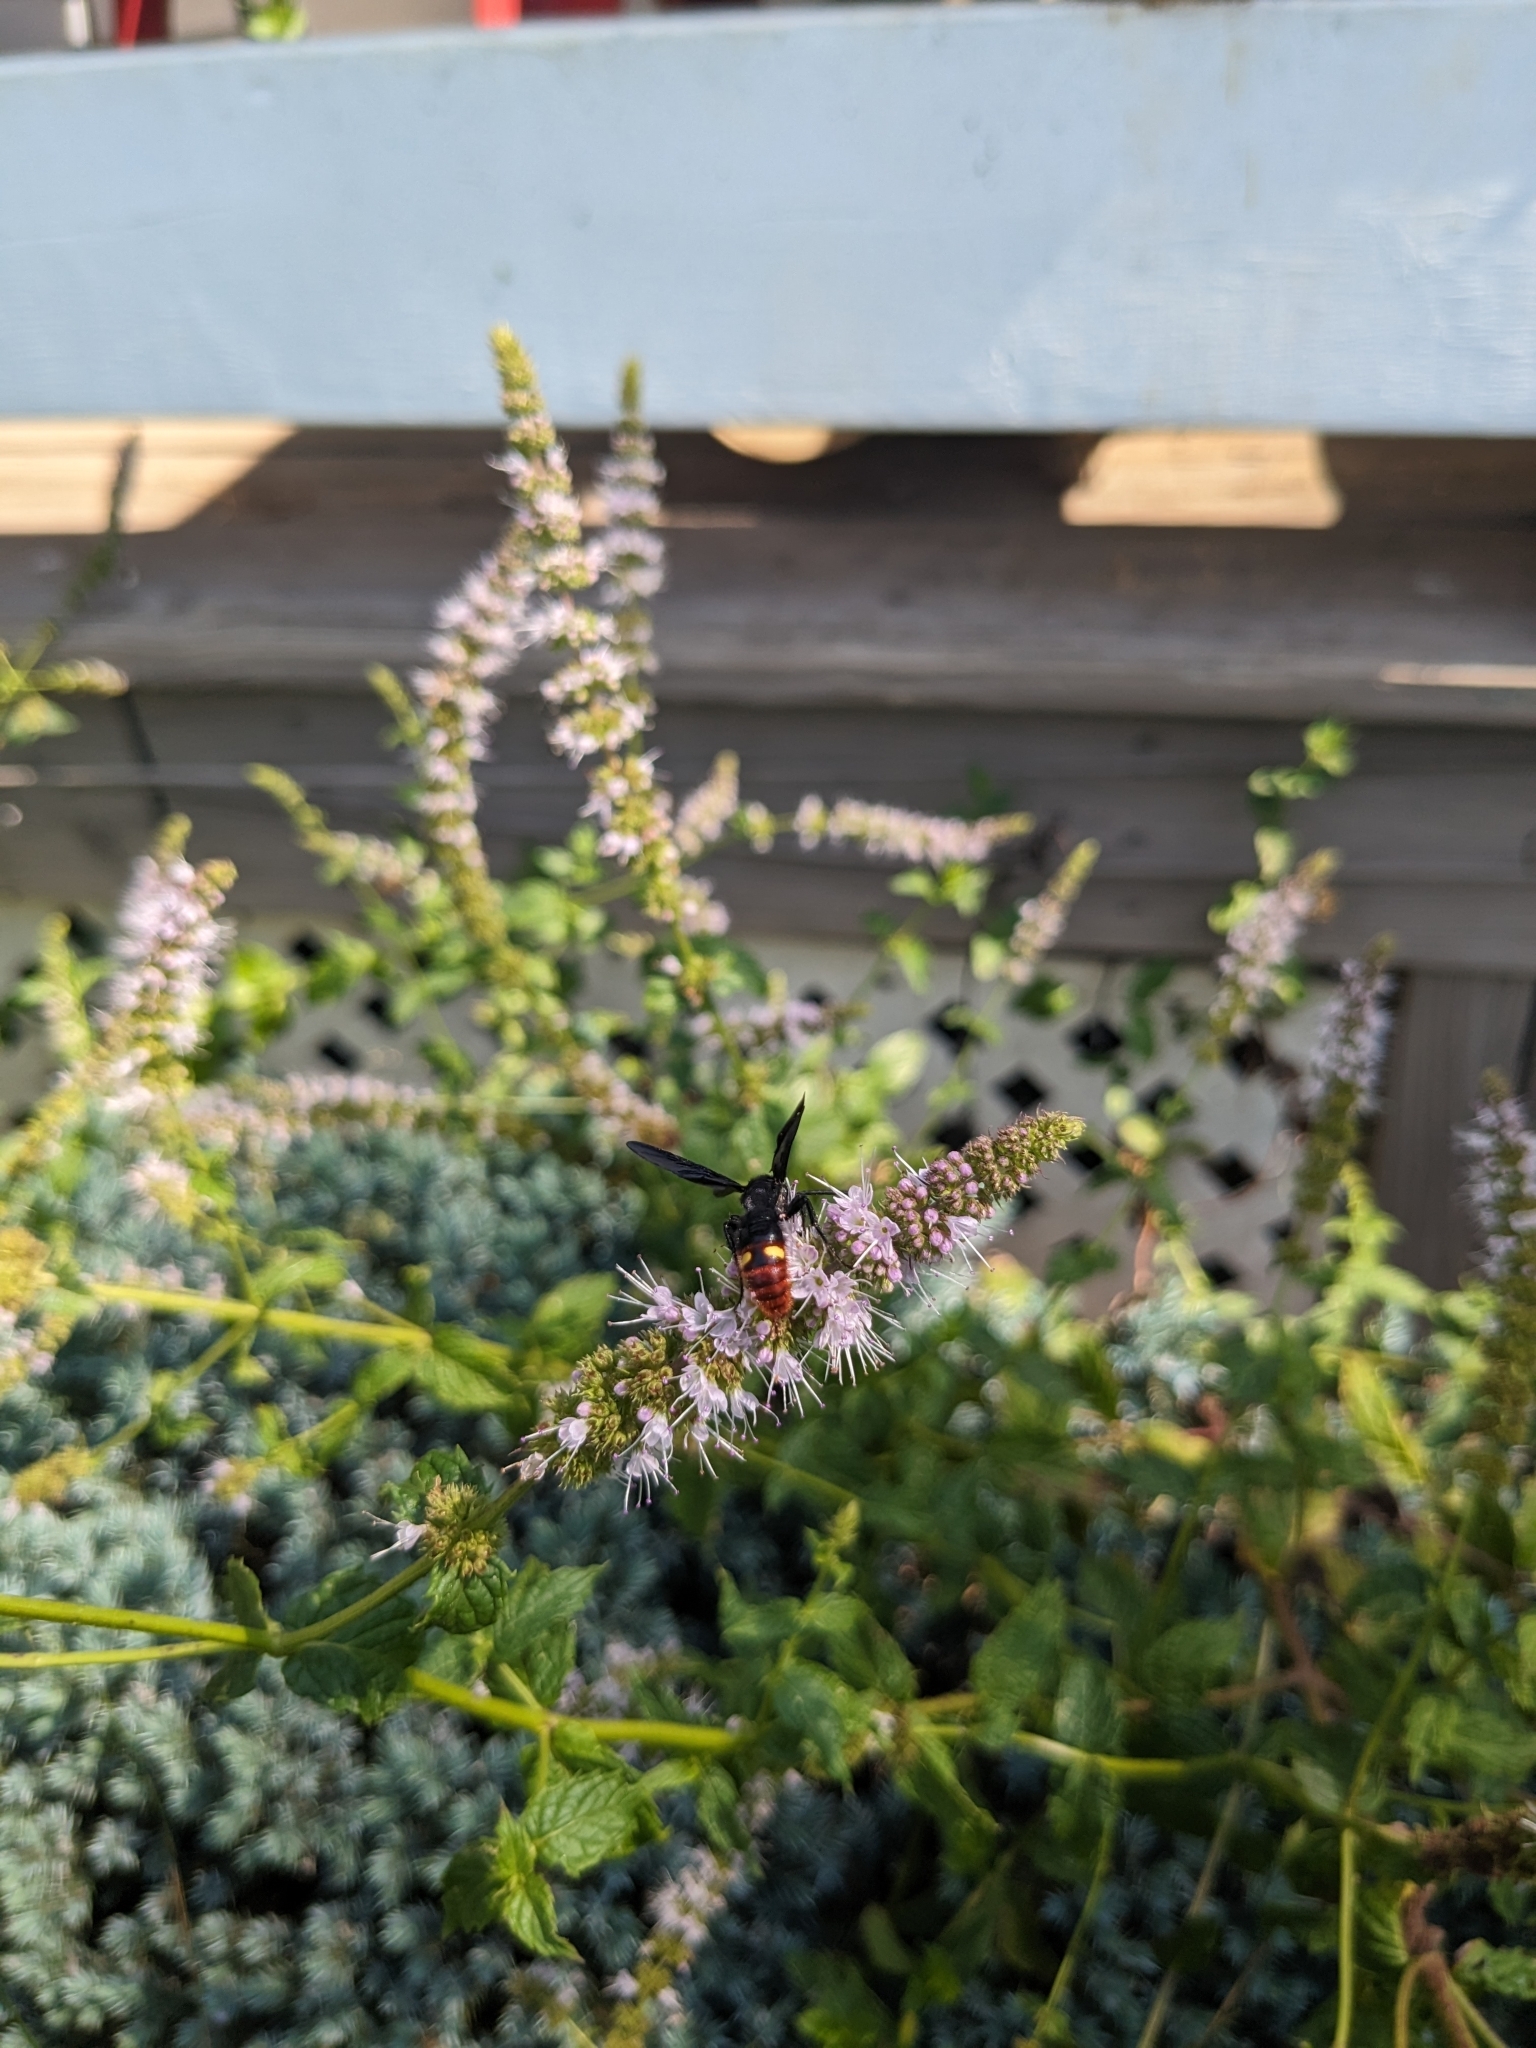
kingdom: Animalia
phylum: Arthropoda
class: Insecta
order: Hymenoptera
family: Scoliidae
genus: Scolia
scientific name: Scolia dubia
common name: Blue-winged scoliid wasp
